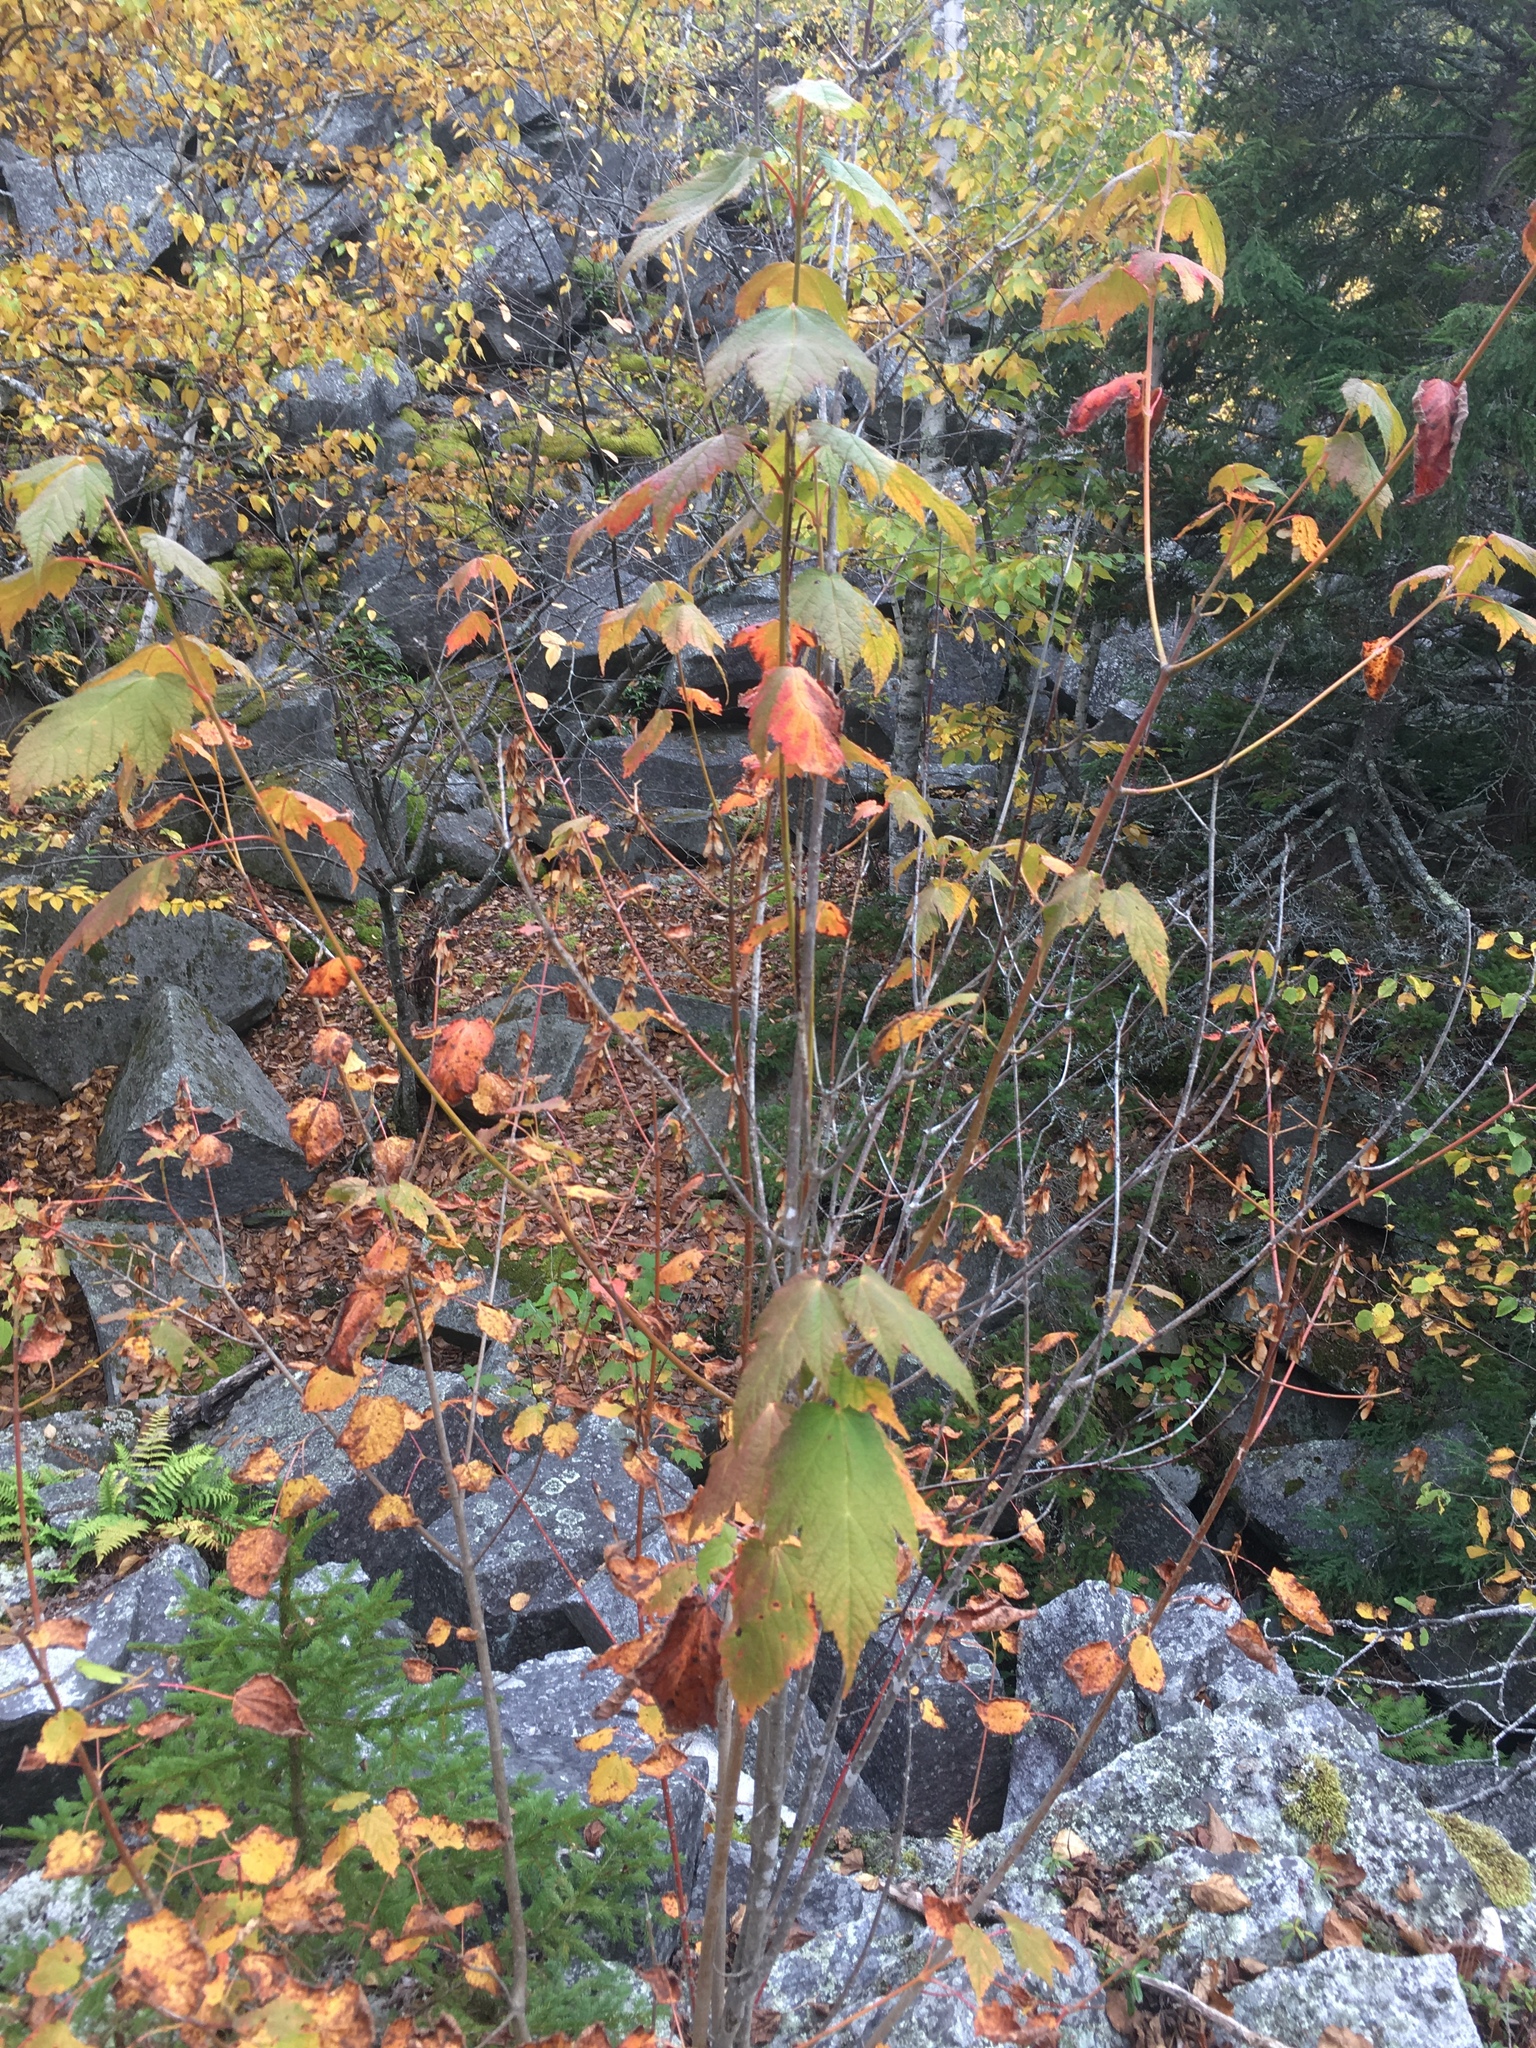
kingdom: Plantae
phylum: Tracheophyta
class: Magnoliopsida
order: Sapindales
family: Sapindaceae
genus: Acer
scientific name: Acer spicatum
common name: Mountain maple
